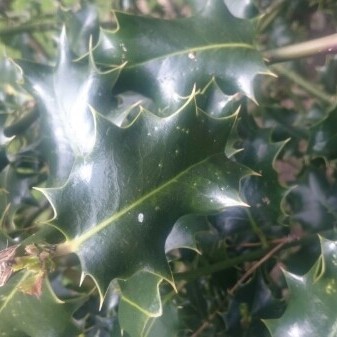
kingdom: Plantae
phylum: Tracheophyta
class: Magnoliopsida
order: Aquifoliales
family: Aquifoliaceae
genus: Ilex
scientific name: Ilex aquifolium
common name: English holly
